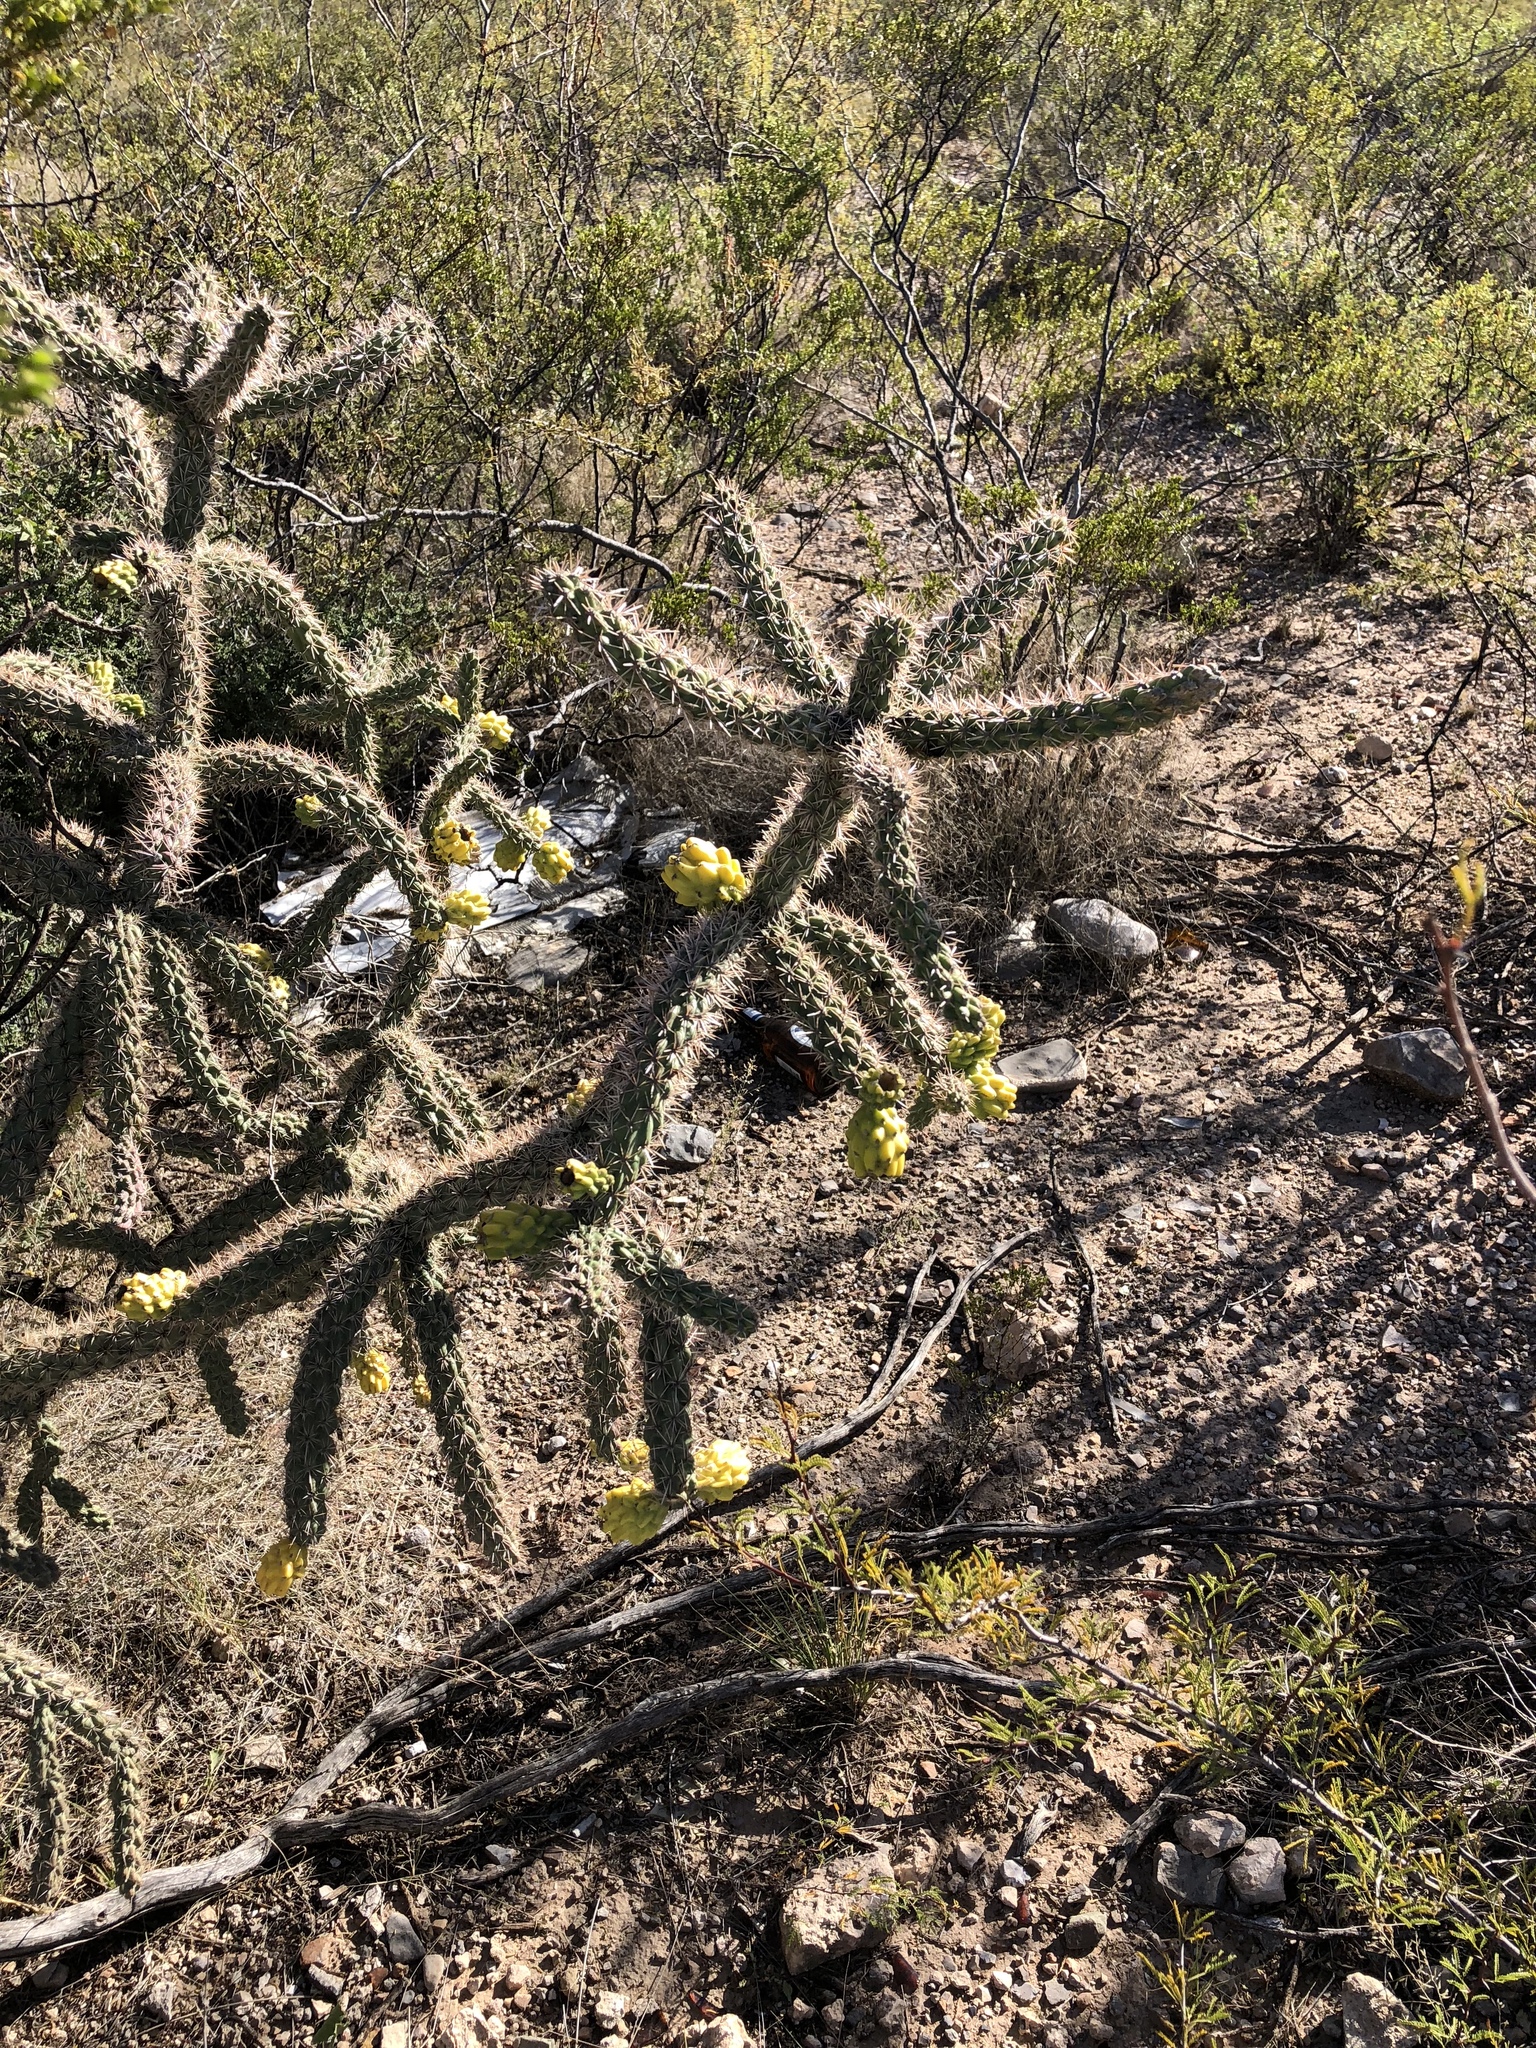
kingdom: Plantae
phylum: Tracheophyta
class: Magnoliopsida
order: Caryophyllales
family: Cactaceae
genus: Cylindropuntia
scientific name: Cylindropuntia imbricata
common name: Candelabrum cactus
